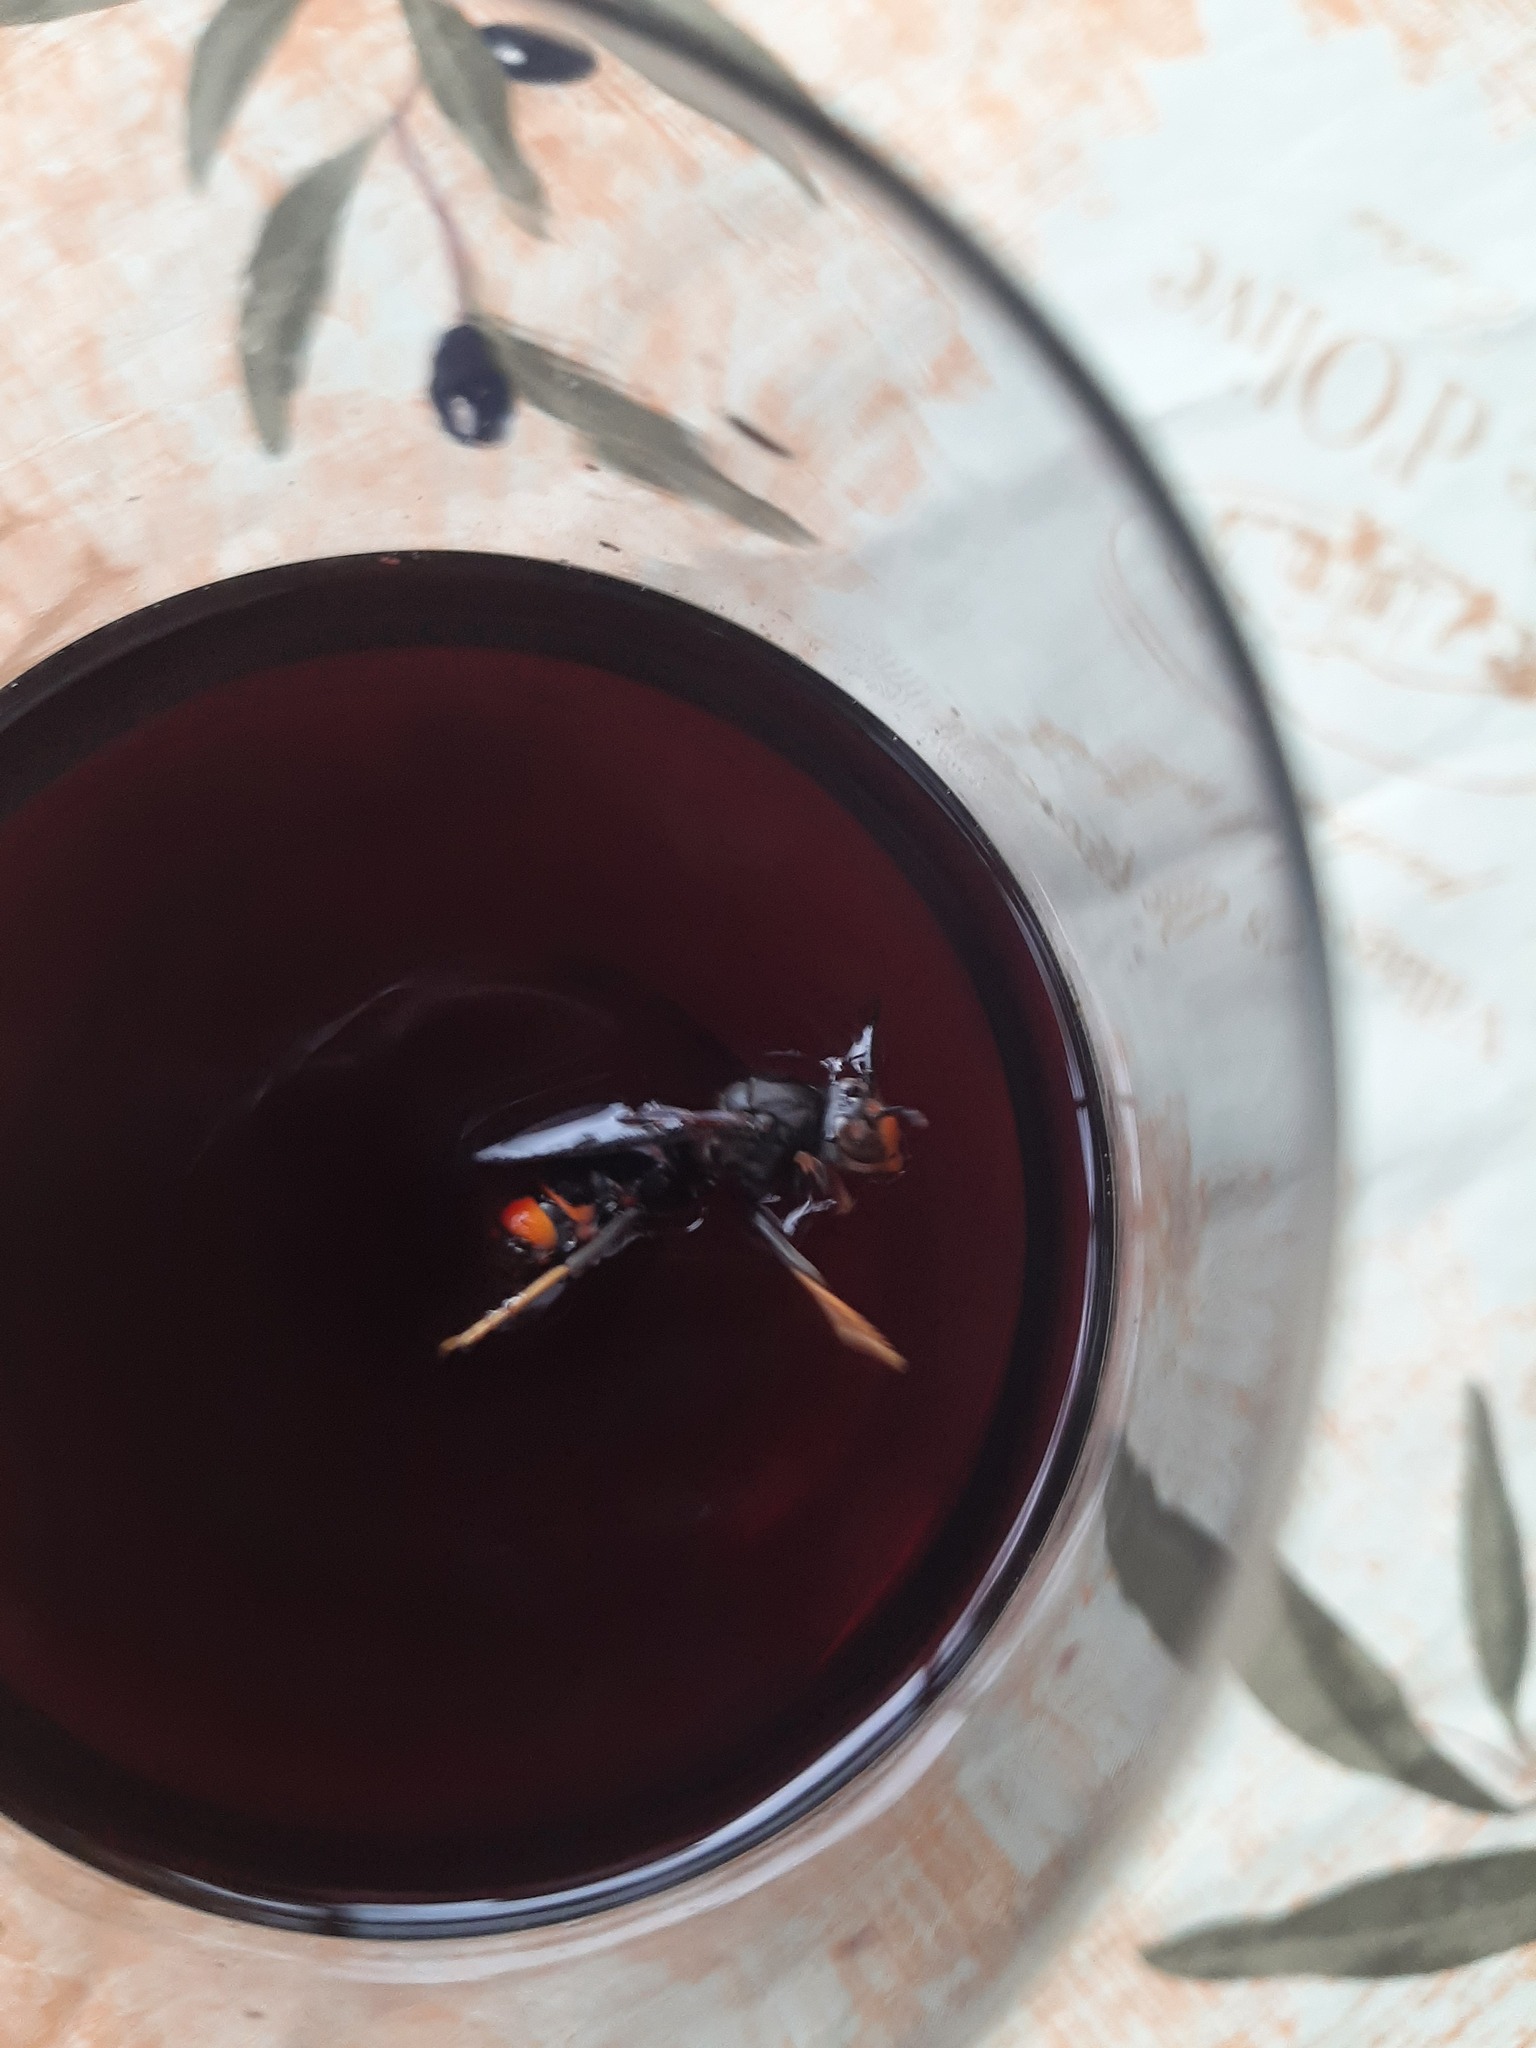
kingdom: Animalia
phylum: Arthropoda
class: Insecta
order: Hymenoptera
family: Vespidae
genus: Vespa
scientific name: Vespa velutina
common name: Asian hornet
